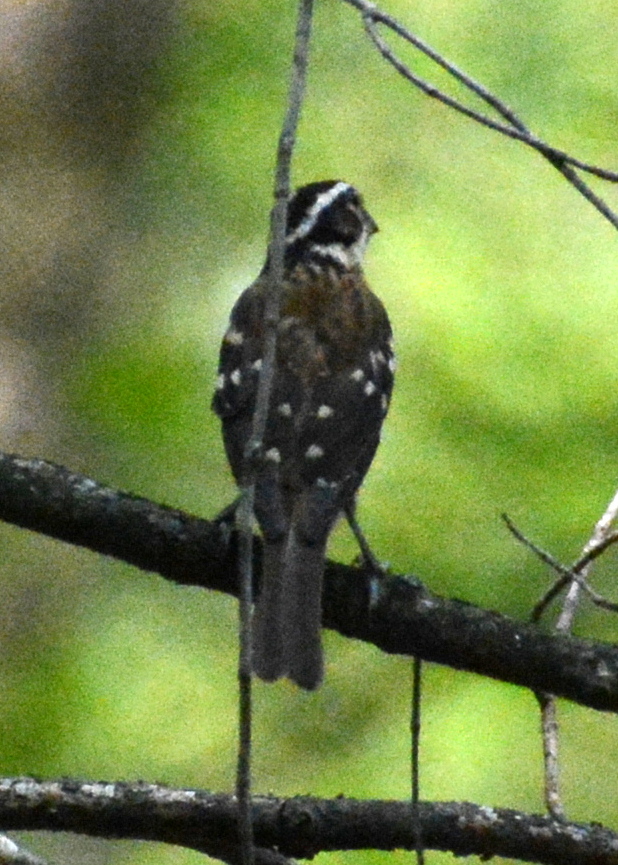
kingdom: Animalia
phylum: Chordata
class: Aves
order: Passeriformes
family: Cardinalidae
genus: Pheucticus
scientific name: Pheucticus ludovicianus
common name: Rose-breasted grosbeak
